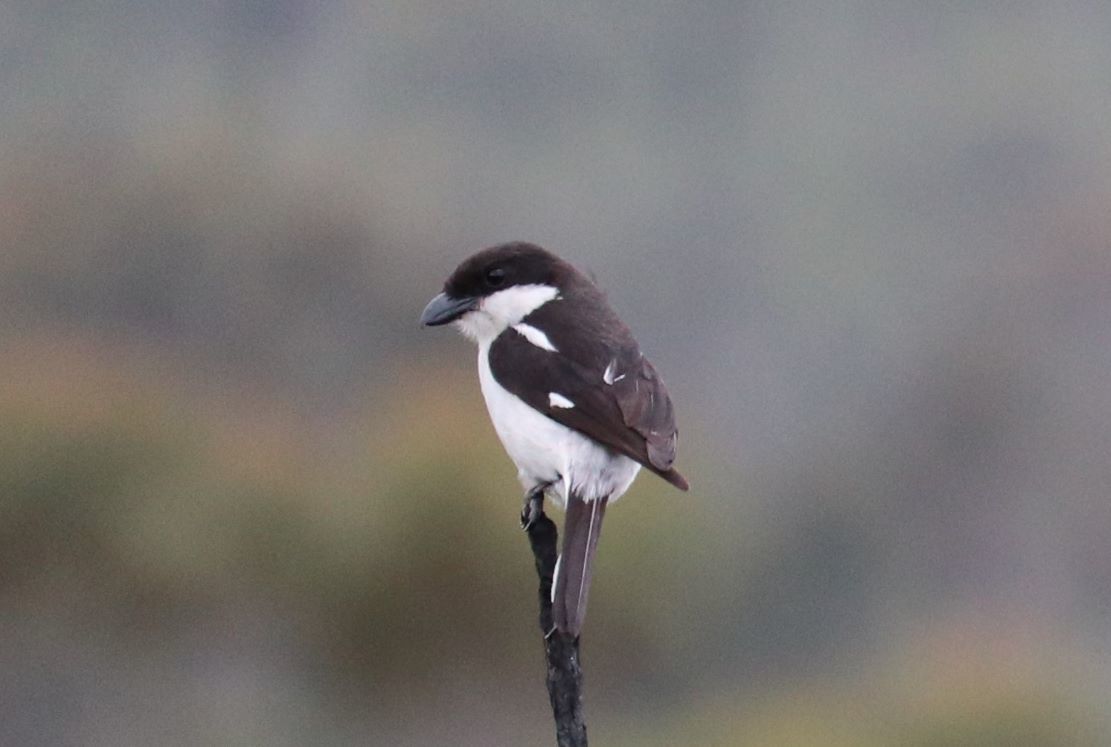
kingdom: Animalia
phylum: Chordata
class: Aves
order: Passeriformes
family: Laniidae
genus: Lanius
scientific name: Lanius collaris
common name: Southern fiscal
